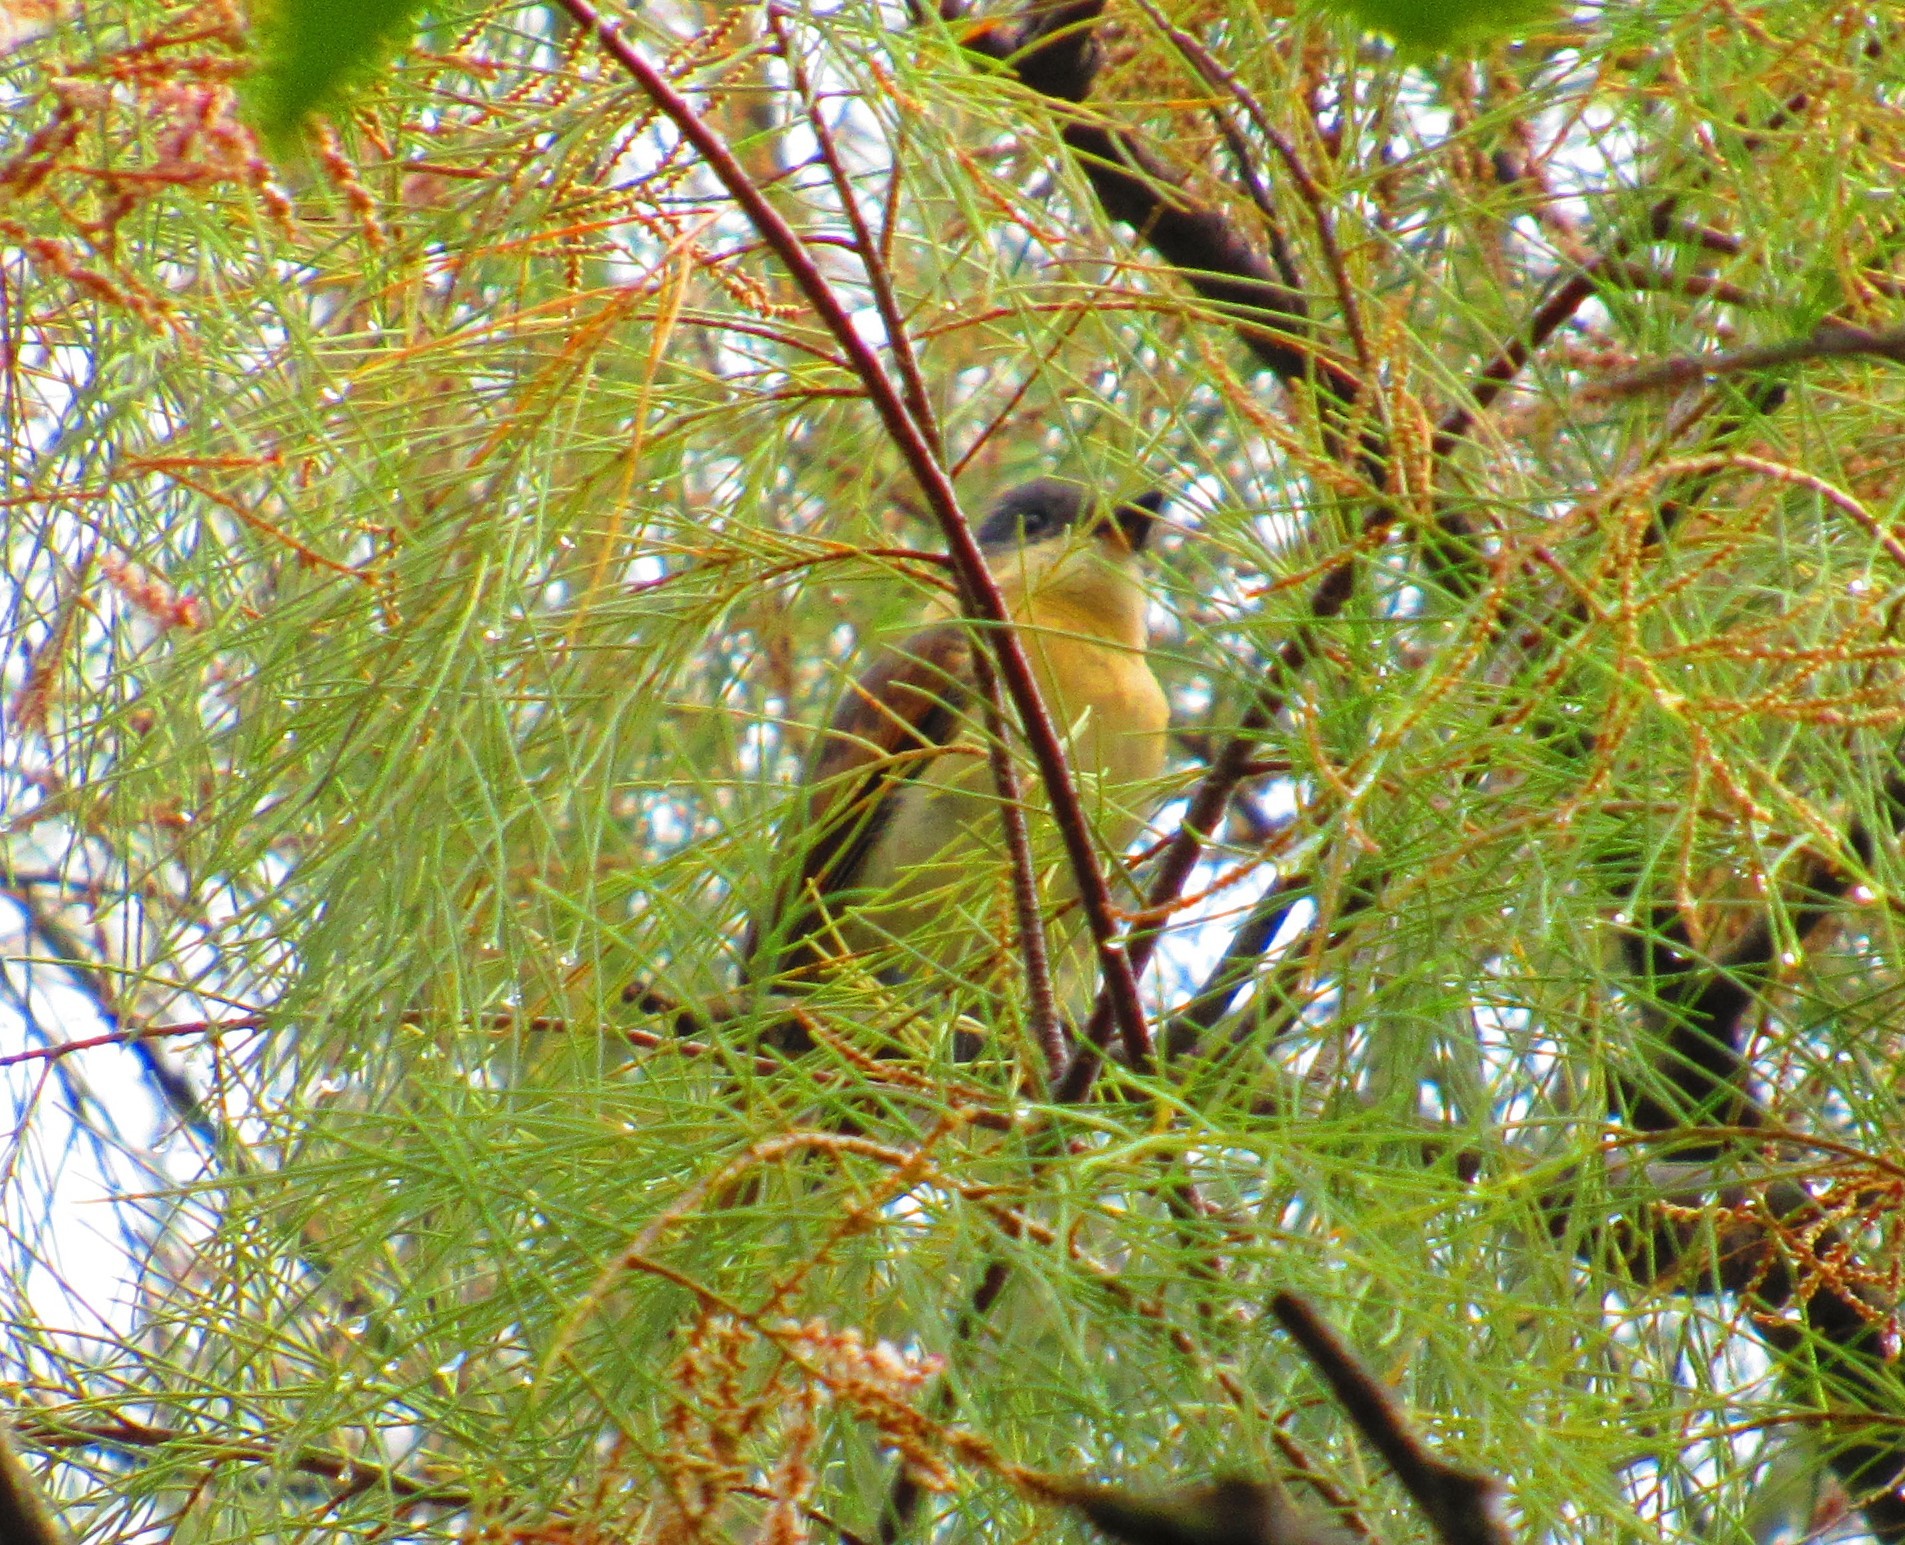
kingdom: Animalia
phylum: Chordata
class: Aves
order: Passeriformes
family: Cotingidae
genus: Pachyramphus
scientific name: Pachyramphus aglaiae
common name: Rose-throated becard
